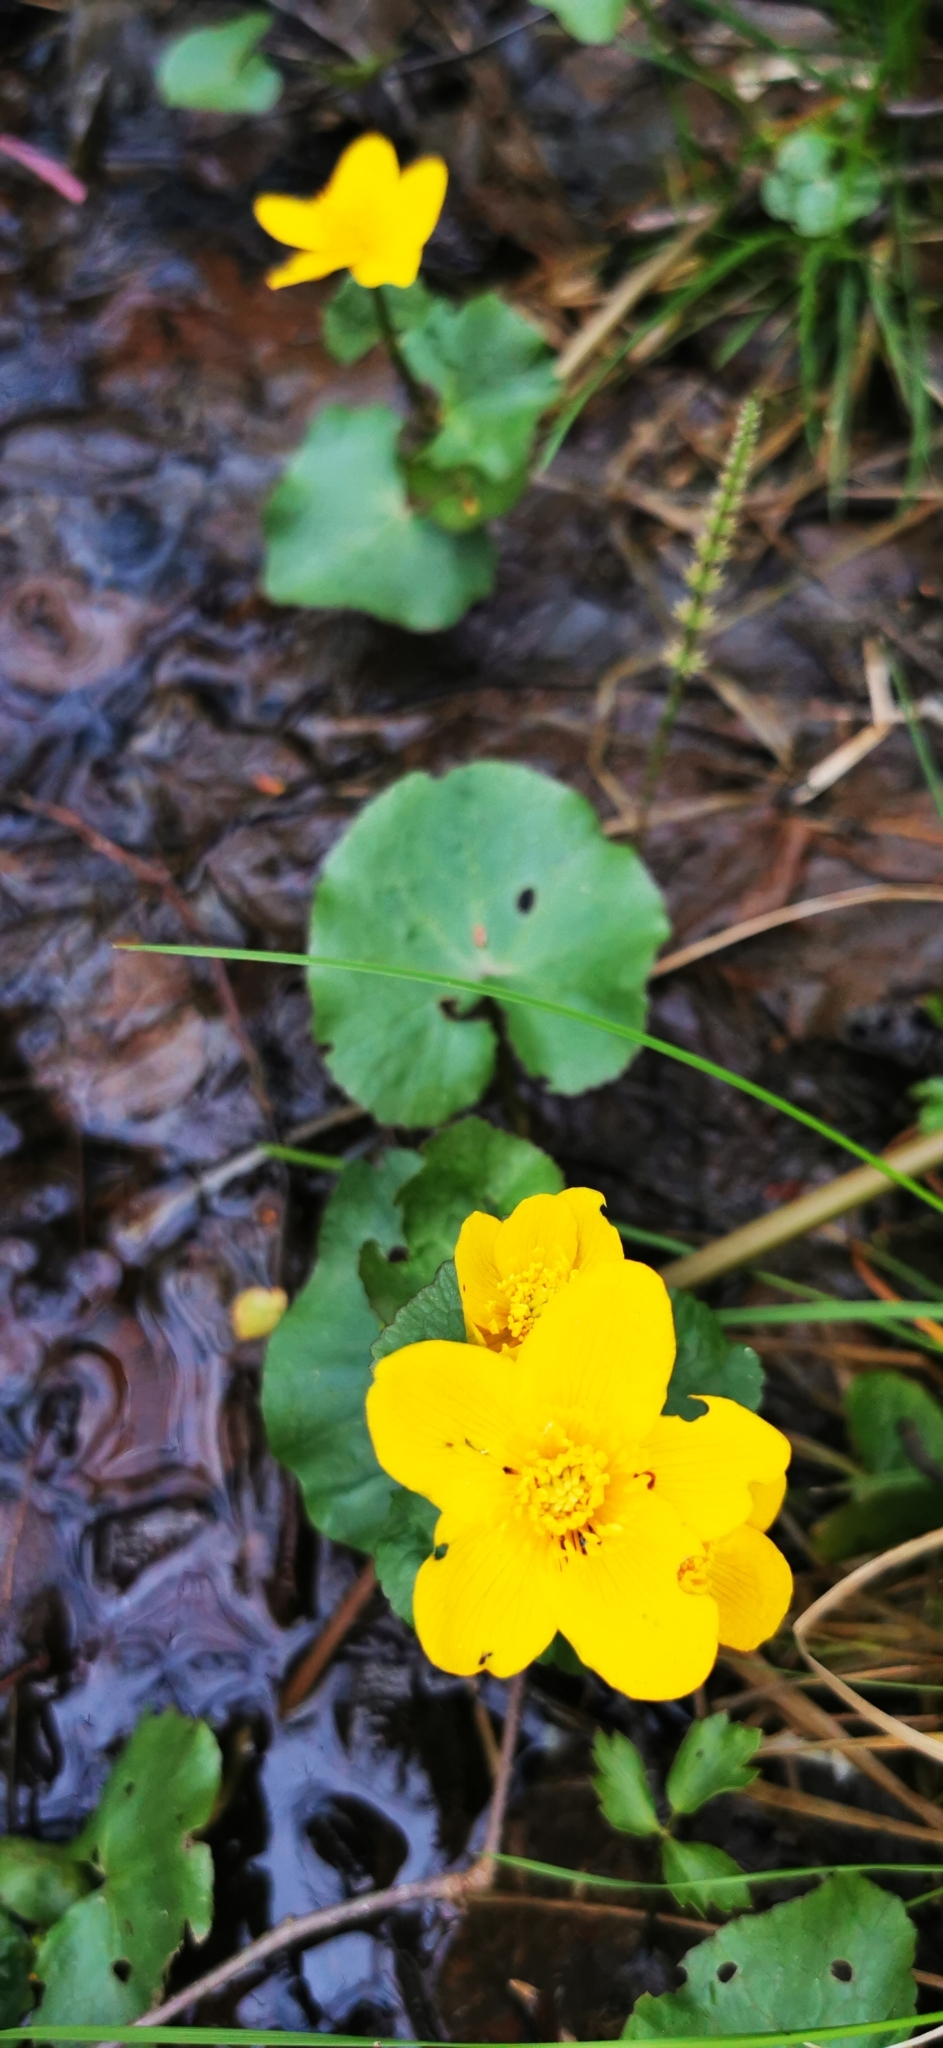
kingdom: Plantae
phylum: Tracheophyta
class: Magnoliopsida
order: Ranunculales
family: Ranunculaceae
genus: Caltha
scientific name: Caltha palustris
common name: Marsh marigold
